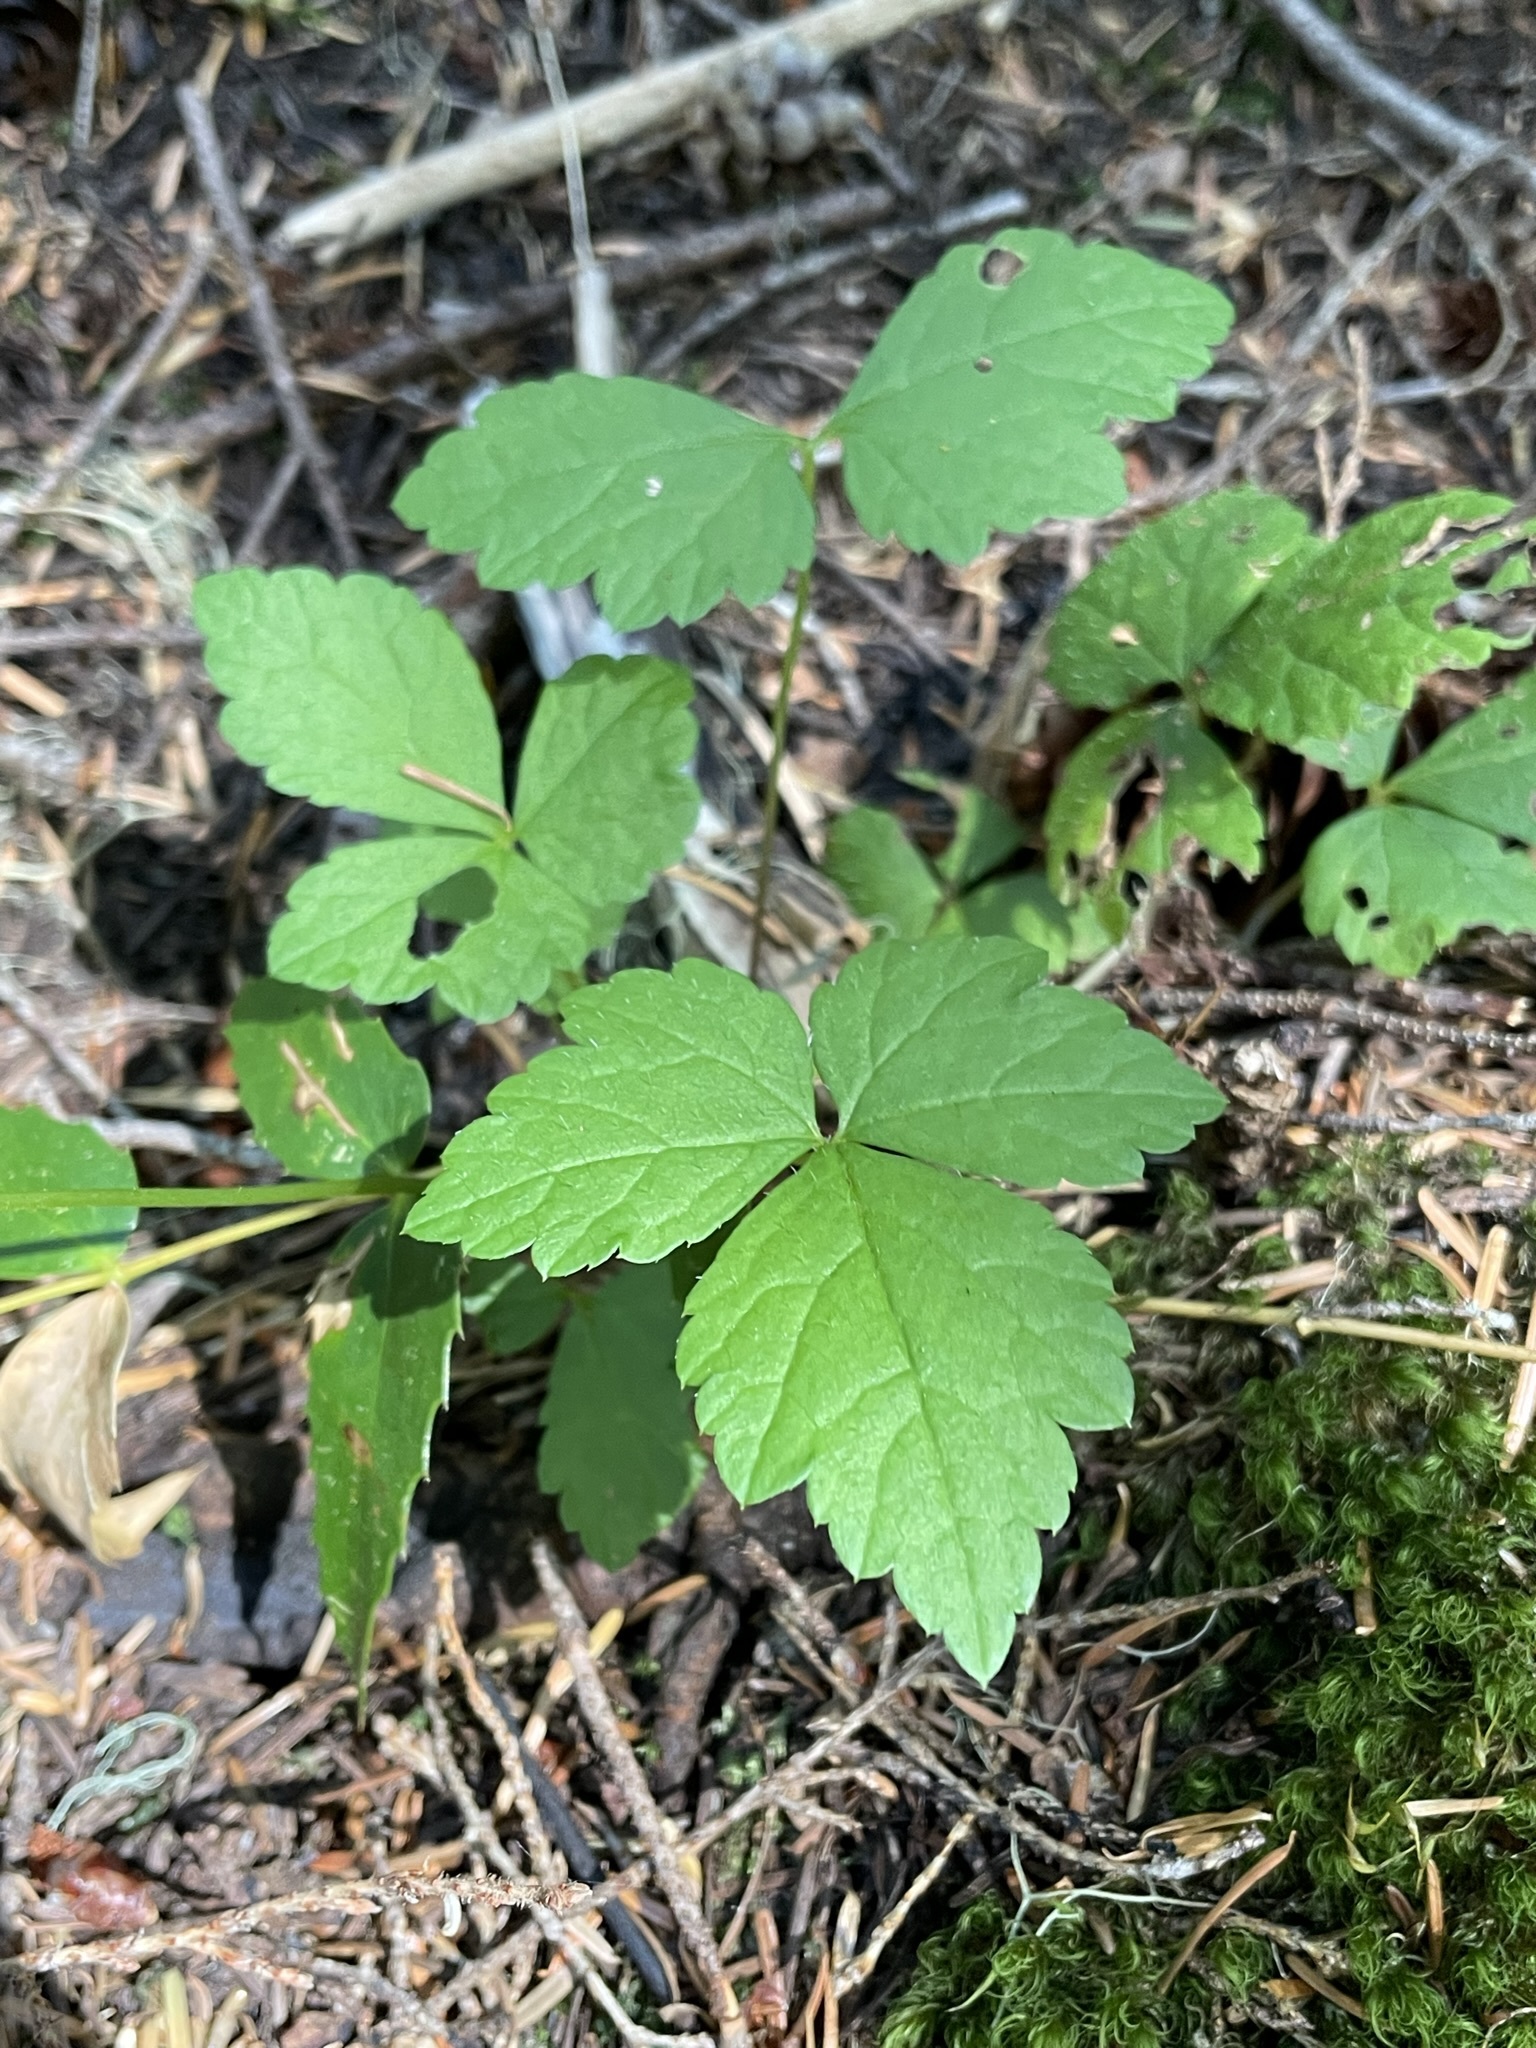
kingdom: Plantae
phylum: Tracheophyta
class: Magnoliopsida
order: Saxifragales
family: Saxifragaceae
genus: Tiarella
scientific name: Tiarella trifoliata
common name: Sugar-scoop
